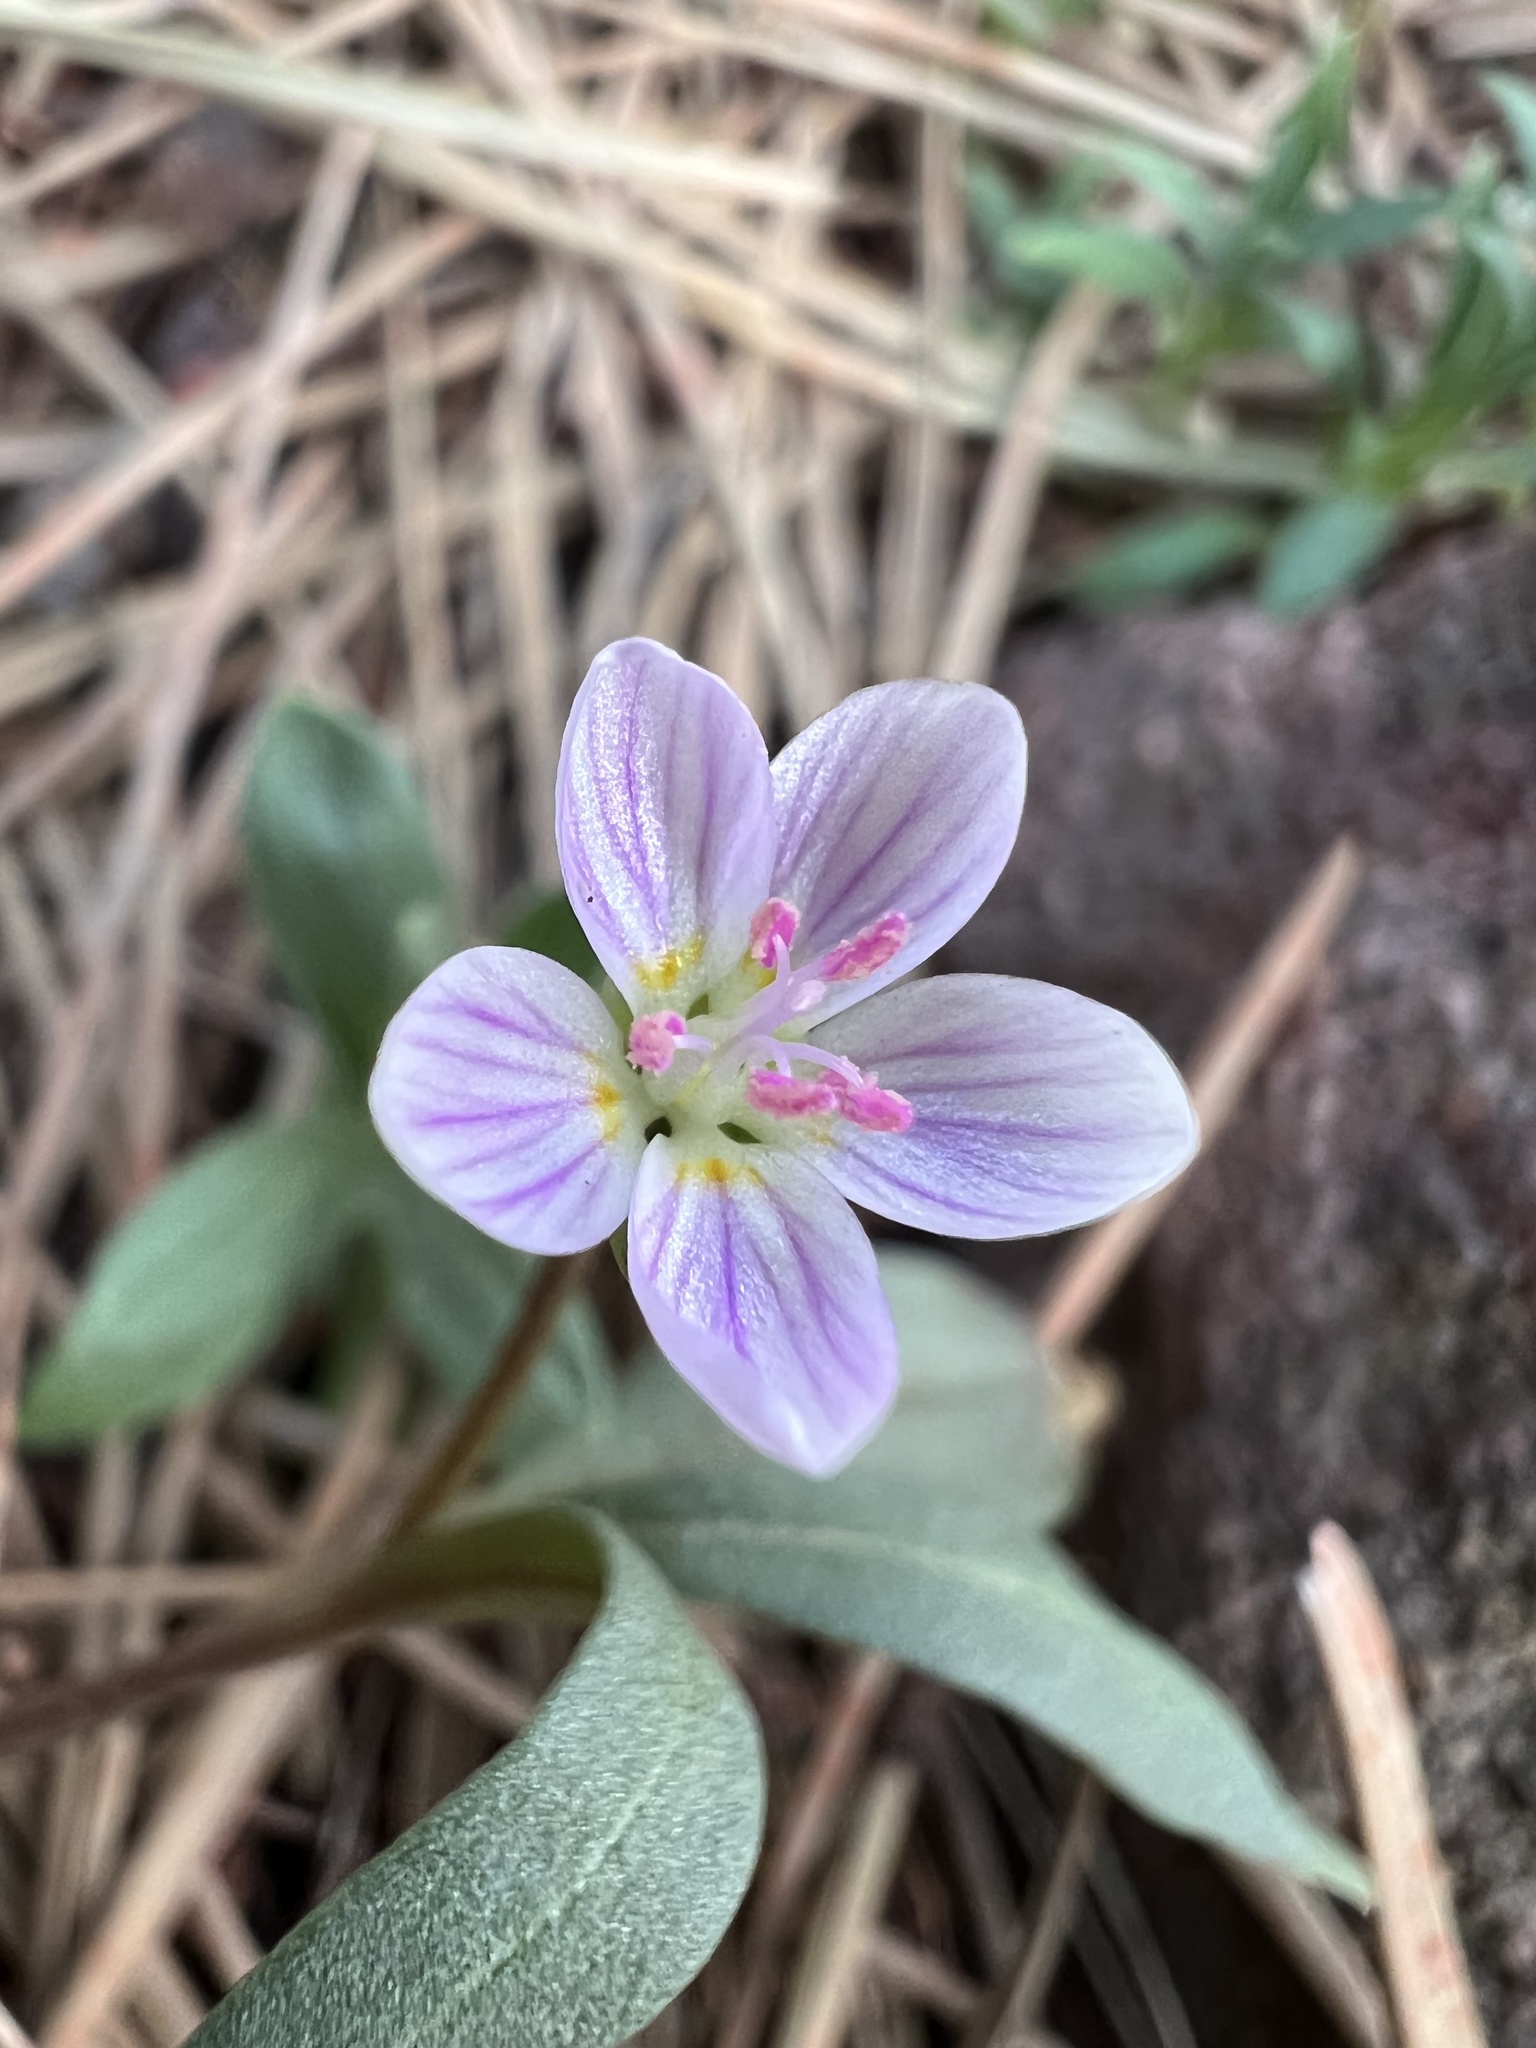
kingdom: Plantae
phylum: Tracheophyta
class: Magnoliopsida
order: Caryophyllales
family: Montiaceae
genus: Claytonia
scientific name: Claytonia rosea
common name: Rocky mountain spring-beauty
